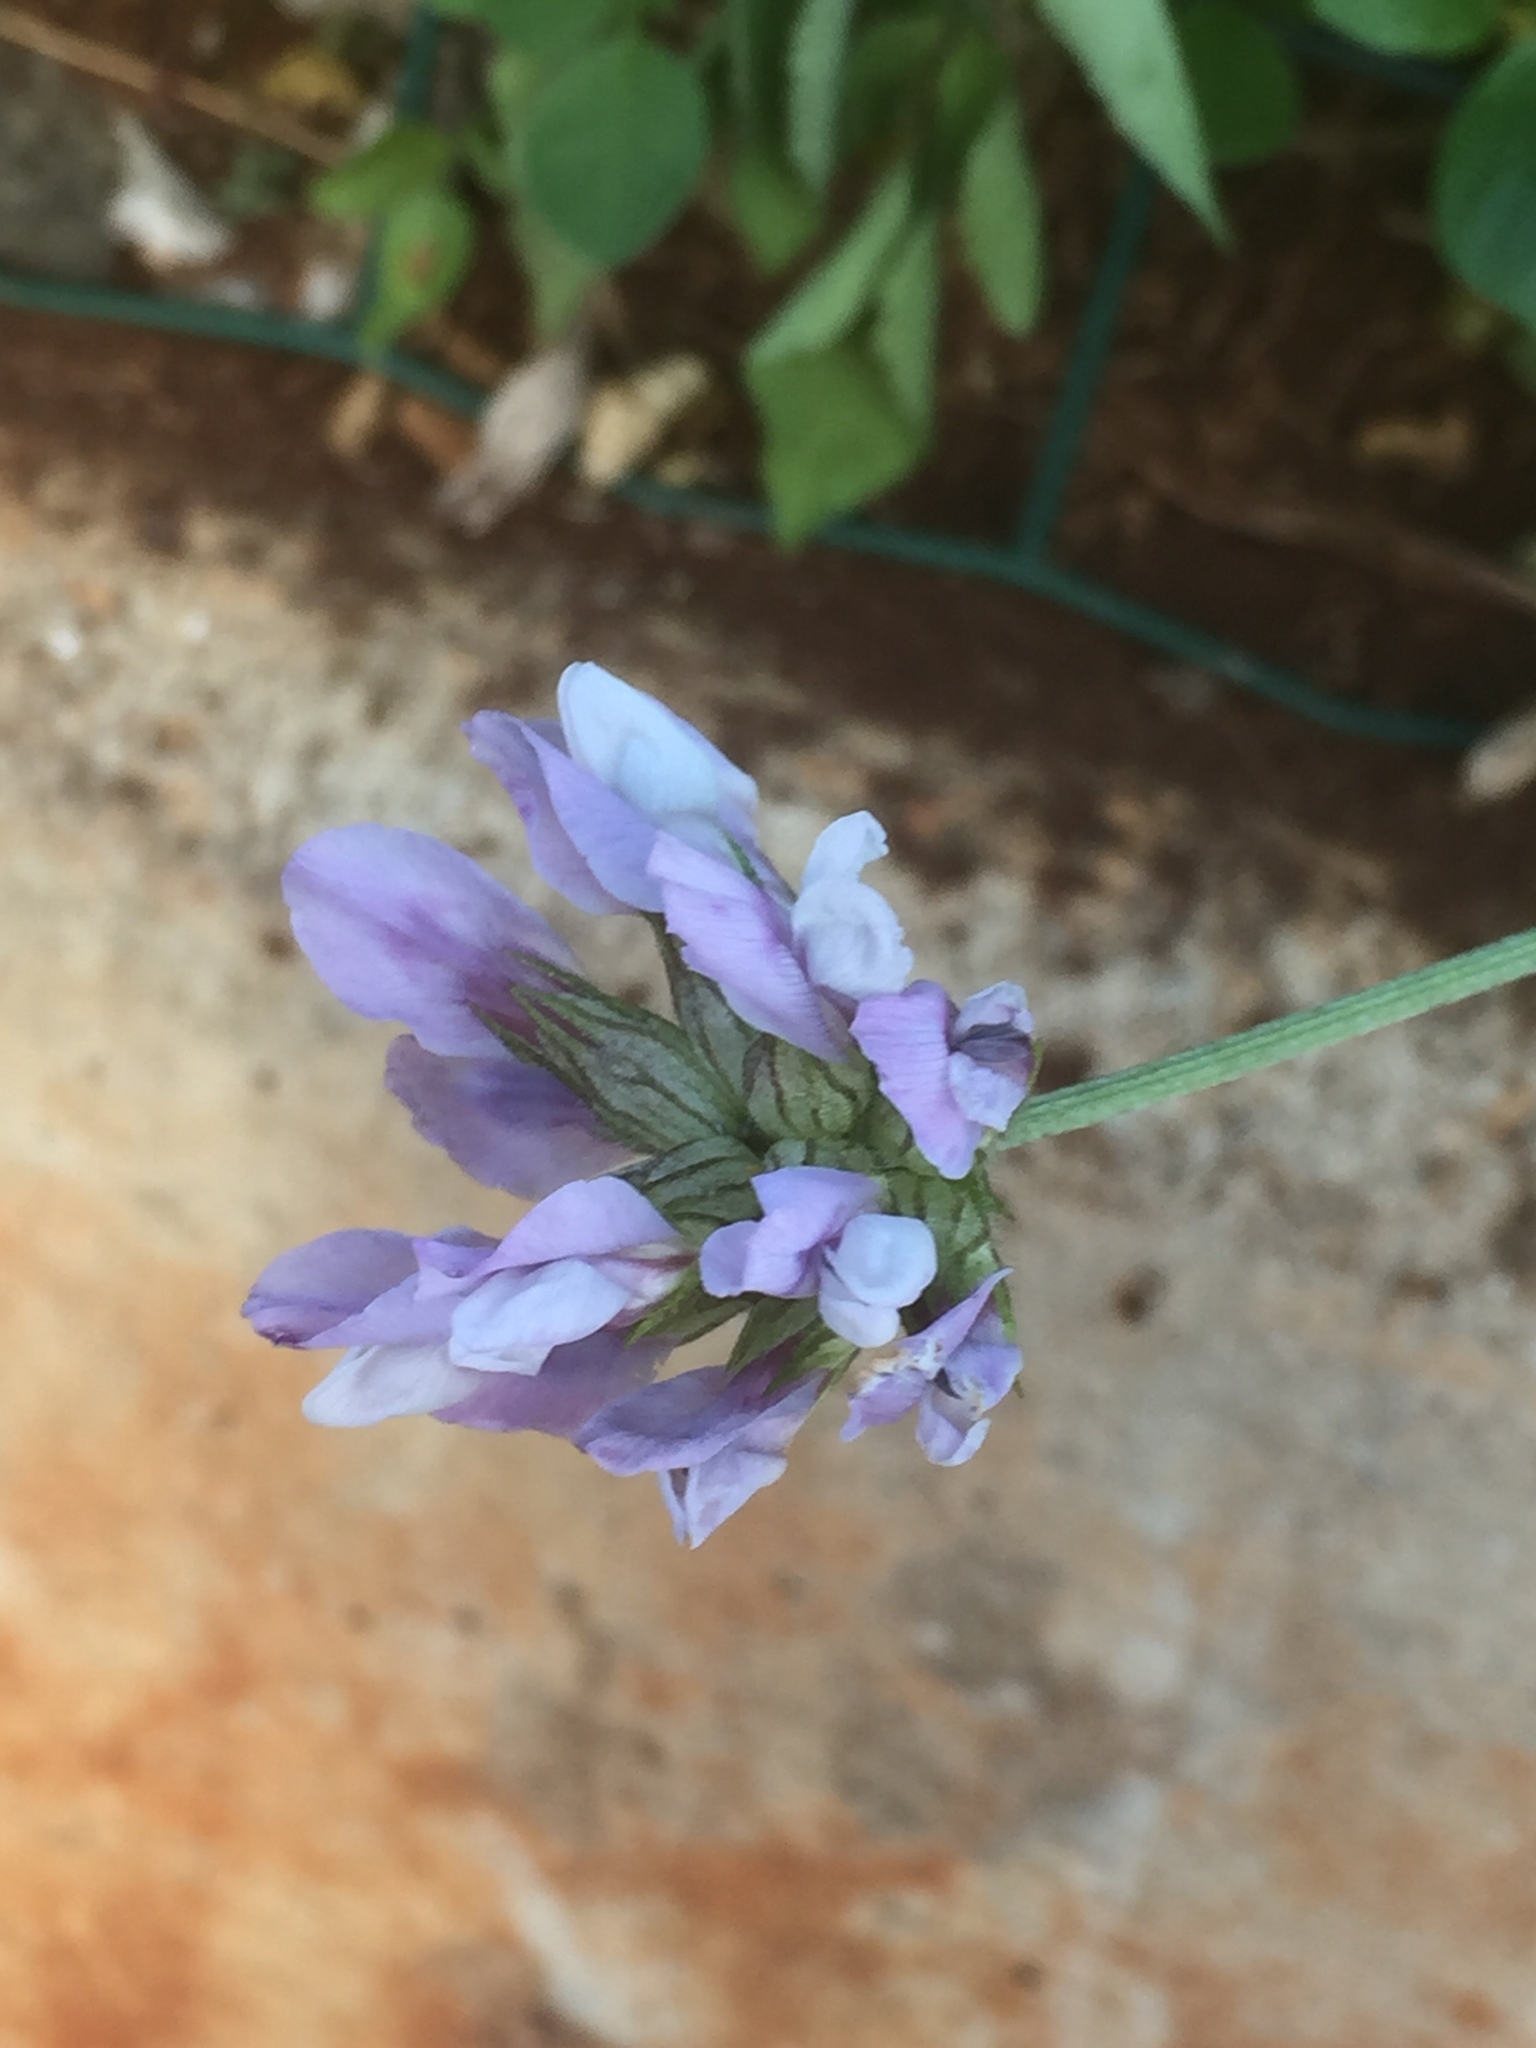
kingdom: Plantae
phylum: Tracheophyta
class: Magnoliopsida
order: Fabales
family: Fabaceae
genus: Bituminaria
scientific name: Bituminaria bituminosa
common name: Arabian pea
